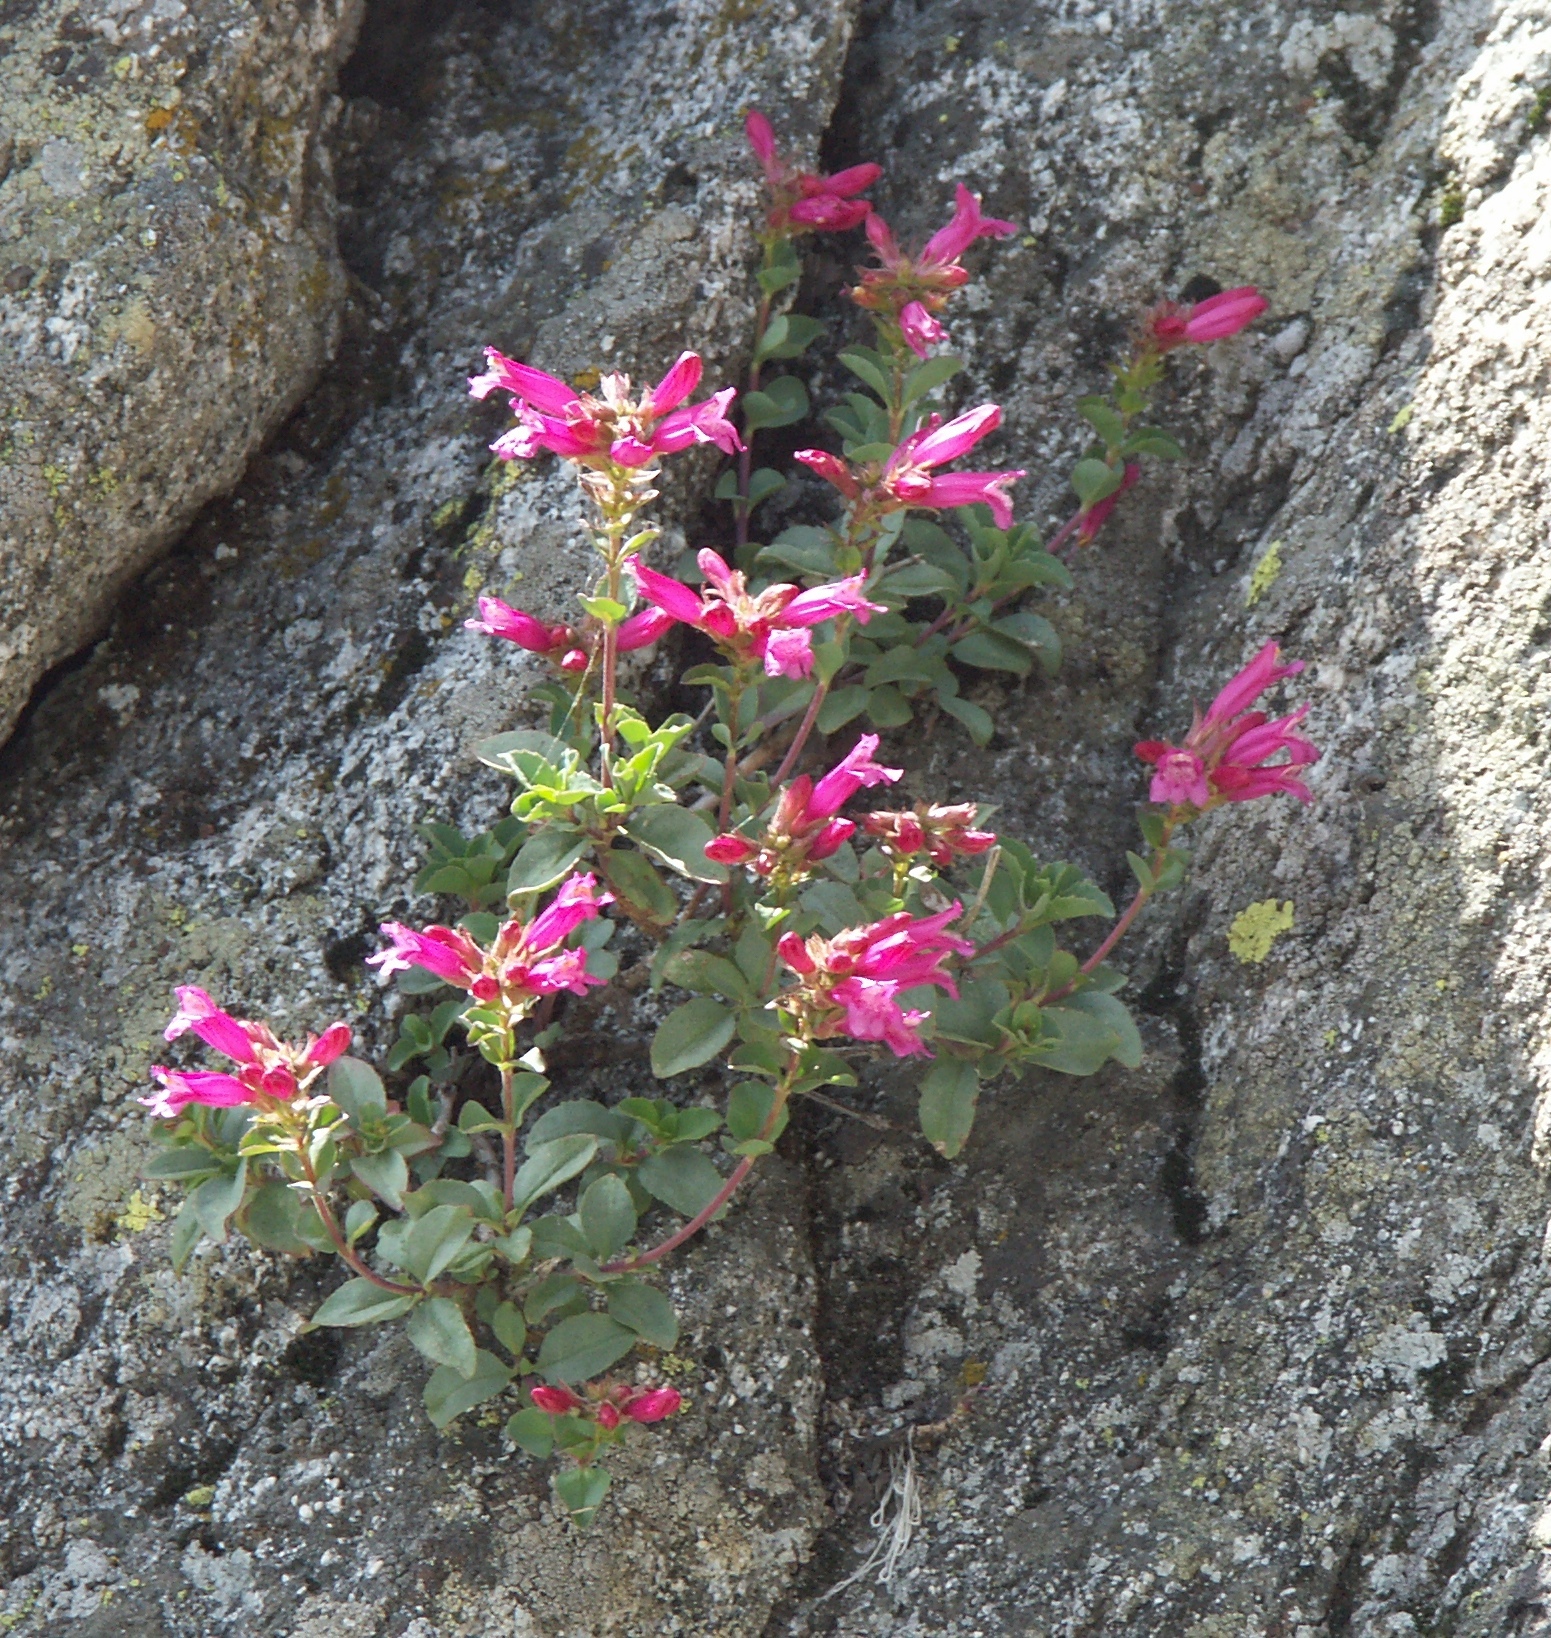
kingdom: Plantae
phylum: Tracheophyta
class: Magnoliopsida
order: Lamiales
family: Plantaginaceae
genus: Penstemon
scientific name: Penstemon newberryi
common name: Mountain-pride
